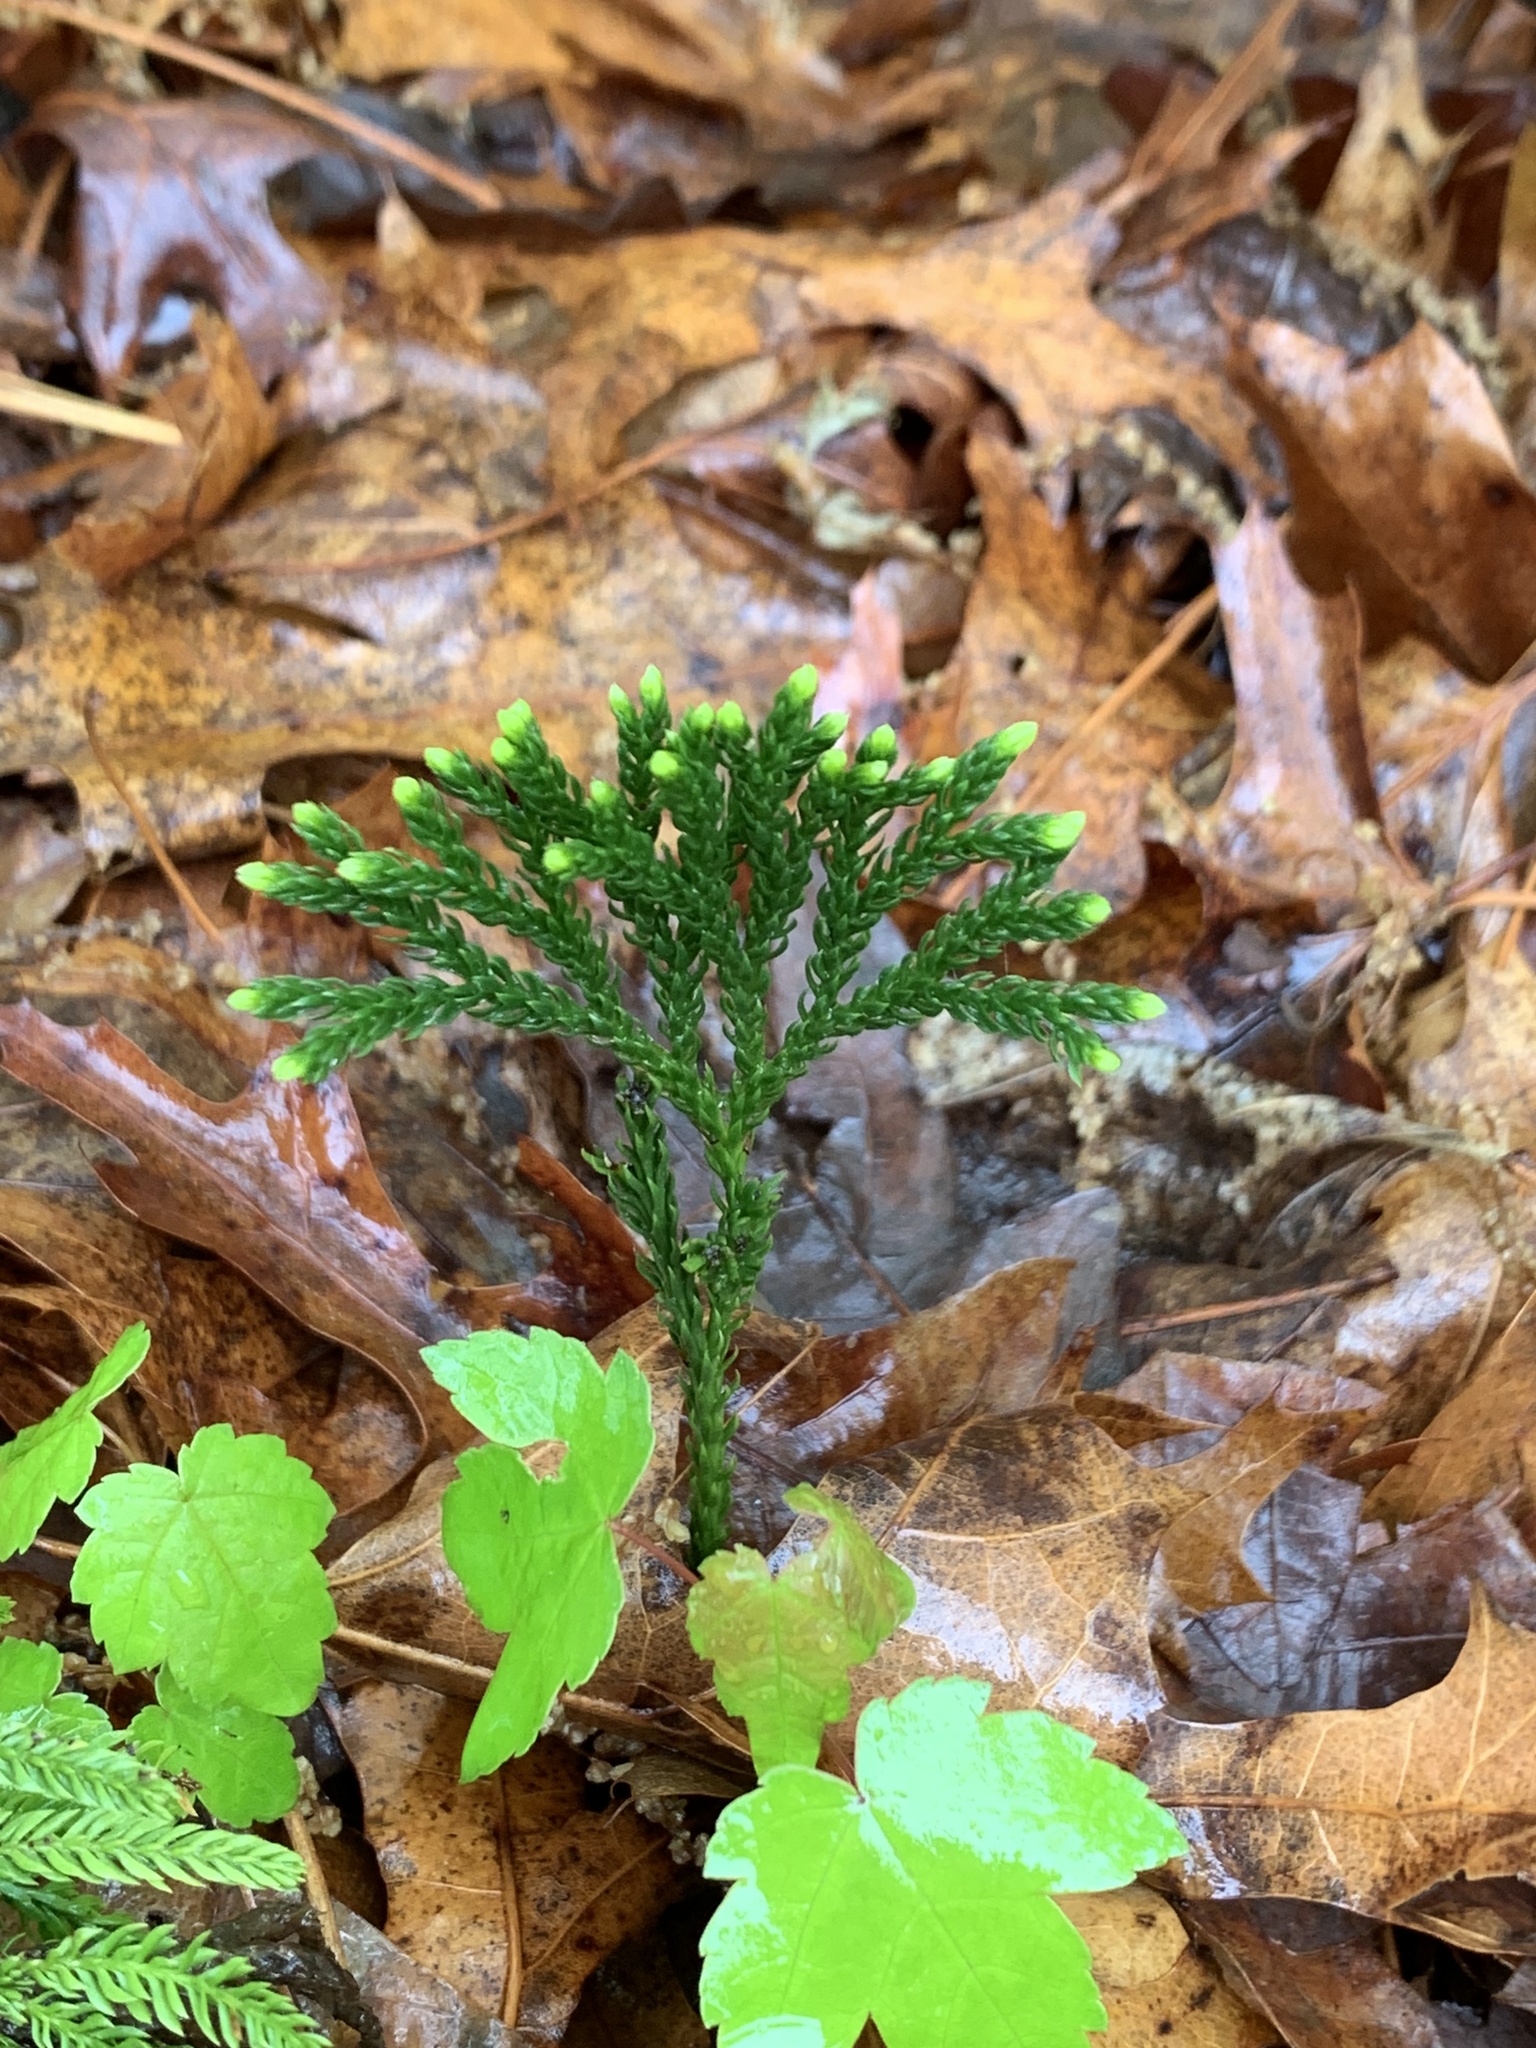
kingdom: Plantae
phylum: Tracheophyta
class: Lycopodiopsida
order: Lycopodiales
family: Lycopodiaceae
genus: Dendrolycopodium
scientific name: Dendrolycopodium obscurum
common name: Common ground-pine
